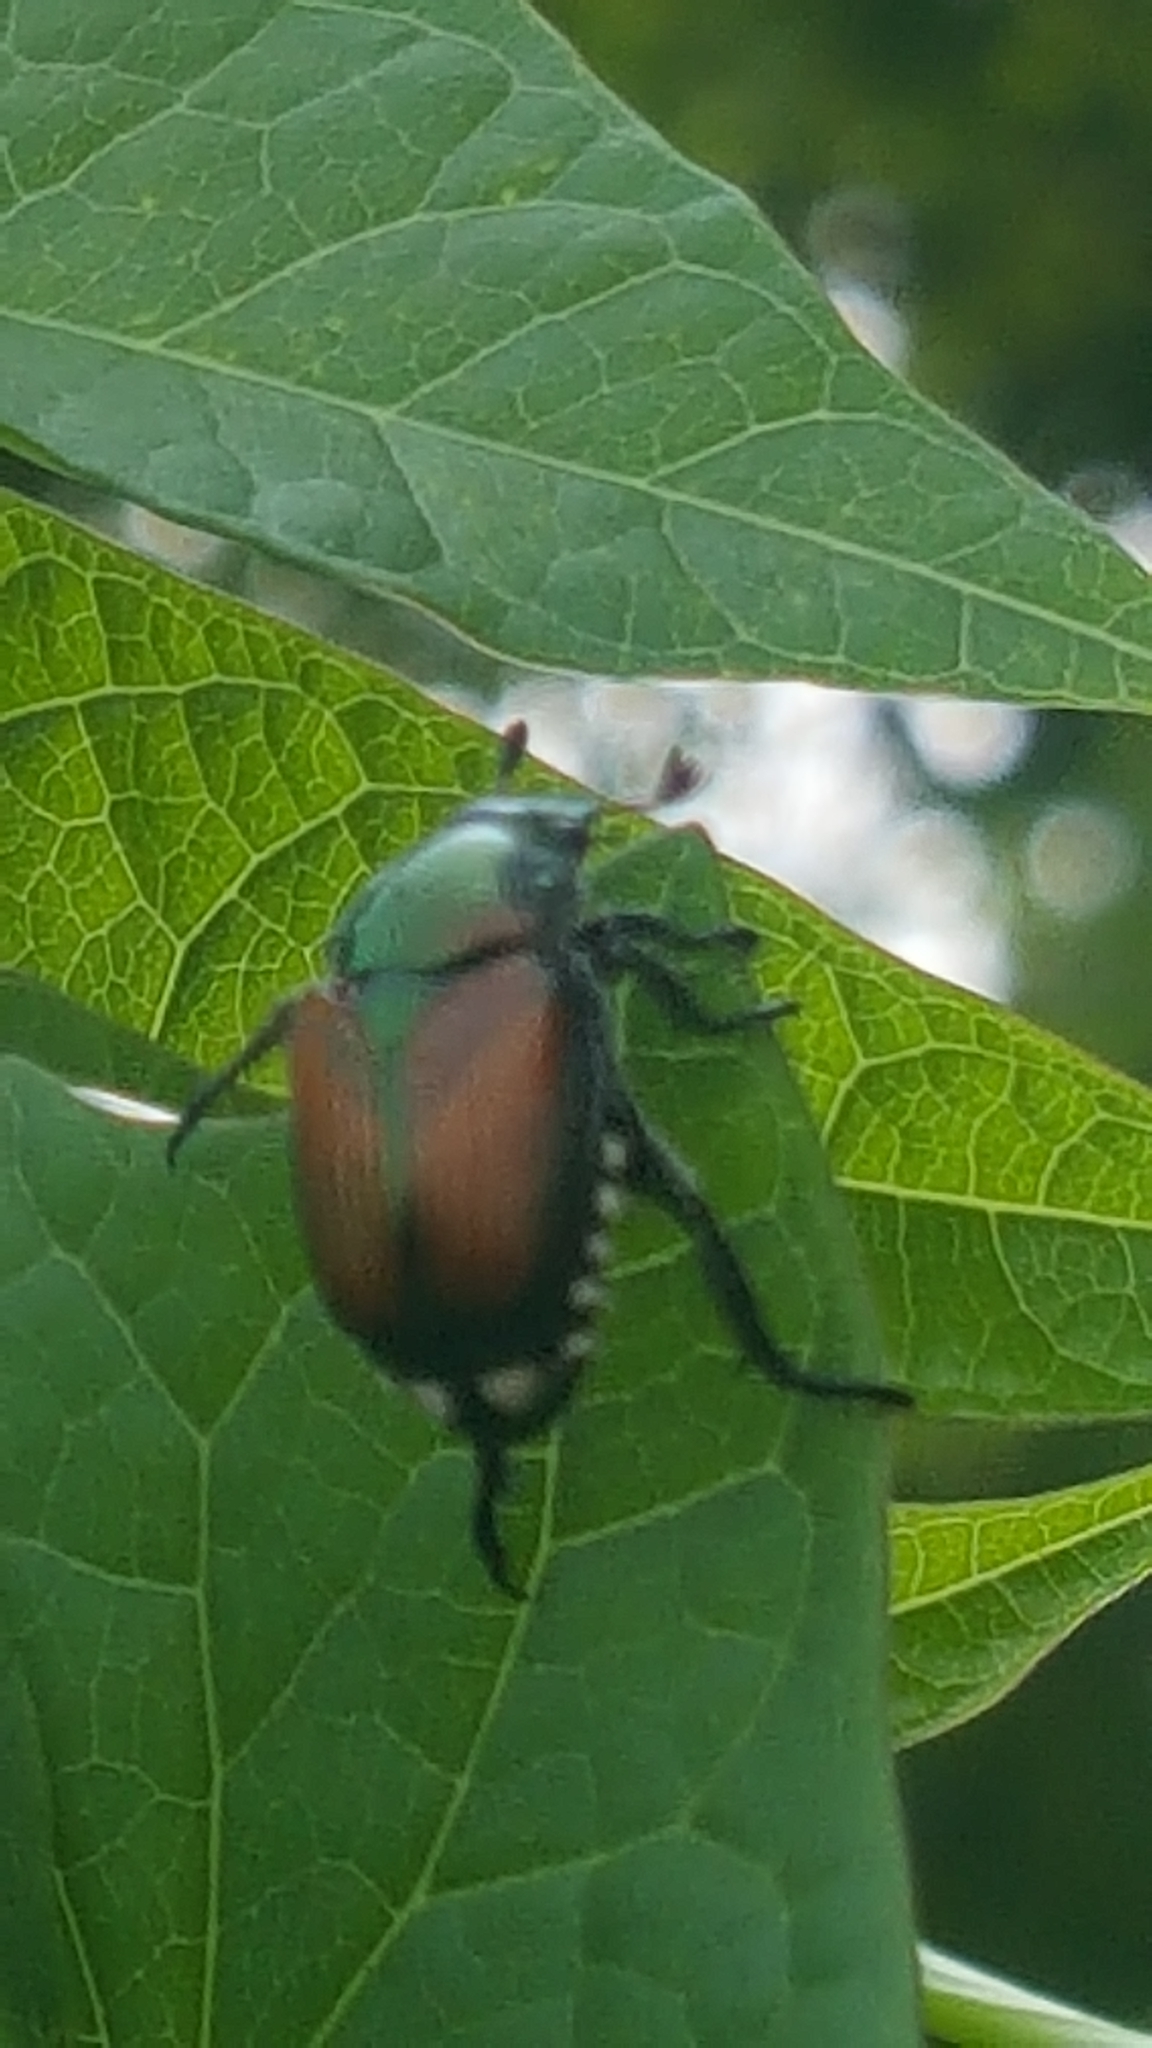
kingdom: Animalia
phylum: Arthropoda
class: Insecta
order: Coleoptera
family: Scarabaeidae
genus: Popillia
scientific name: Popillia japonica
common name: Japanese beetle
